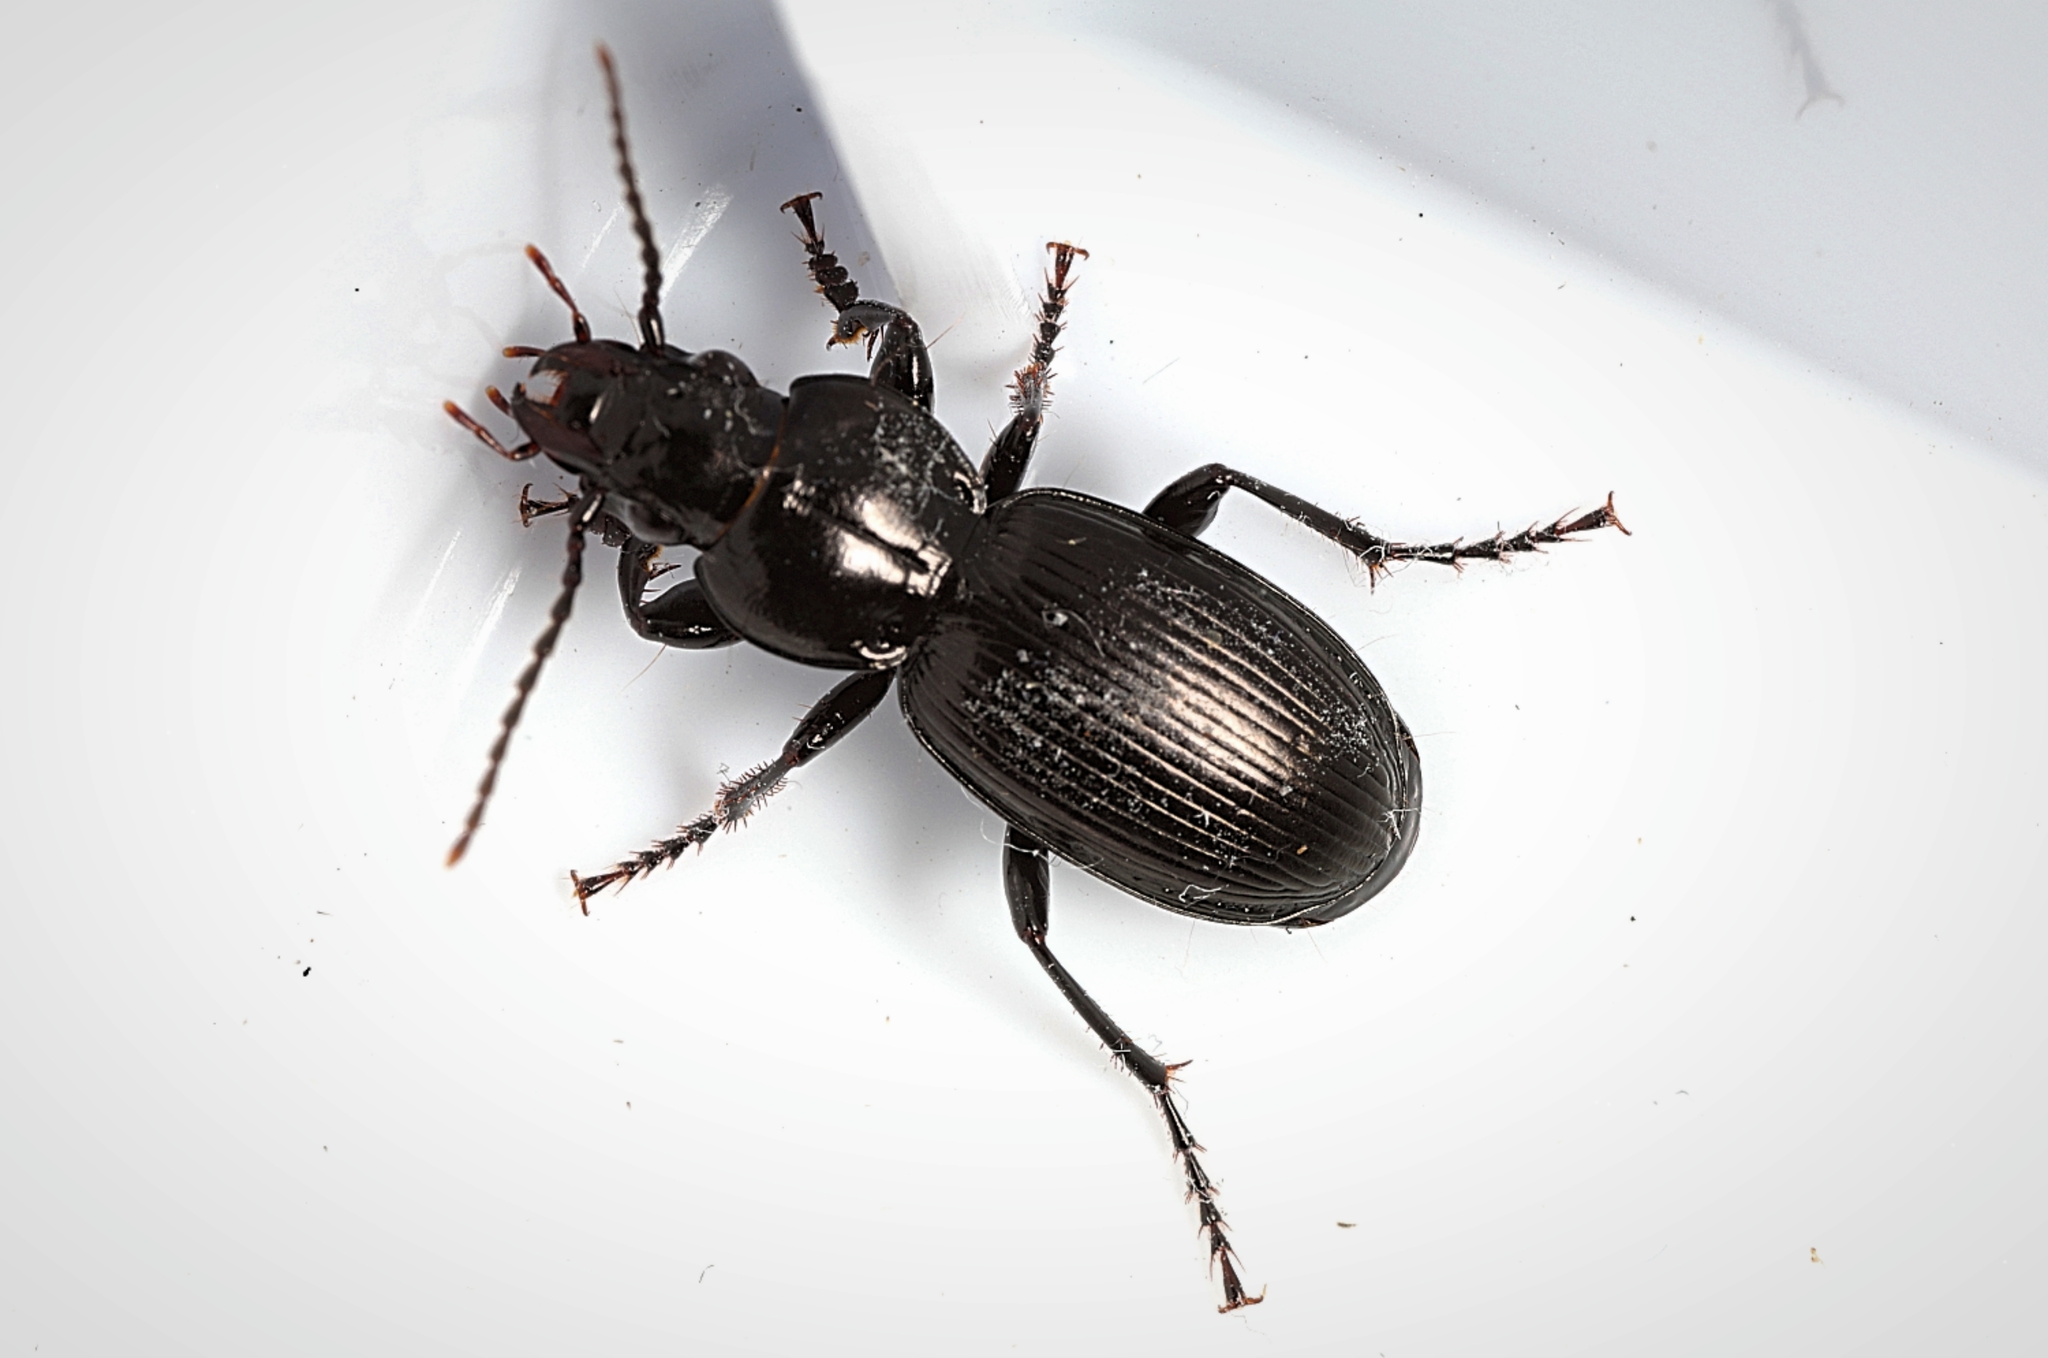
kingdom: Animalia
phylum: Arthropoda
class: Insecta
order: Coleoptera
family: Carabidae
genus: Pterostichus
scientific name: Pterostichus madidus
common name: Black clock
